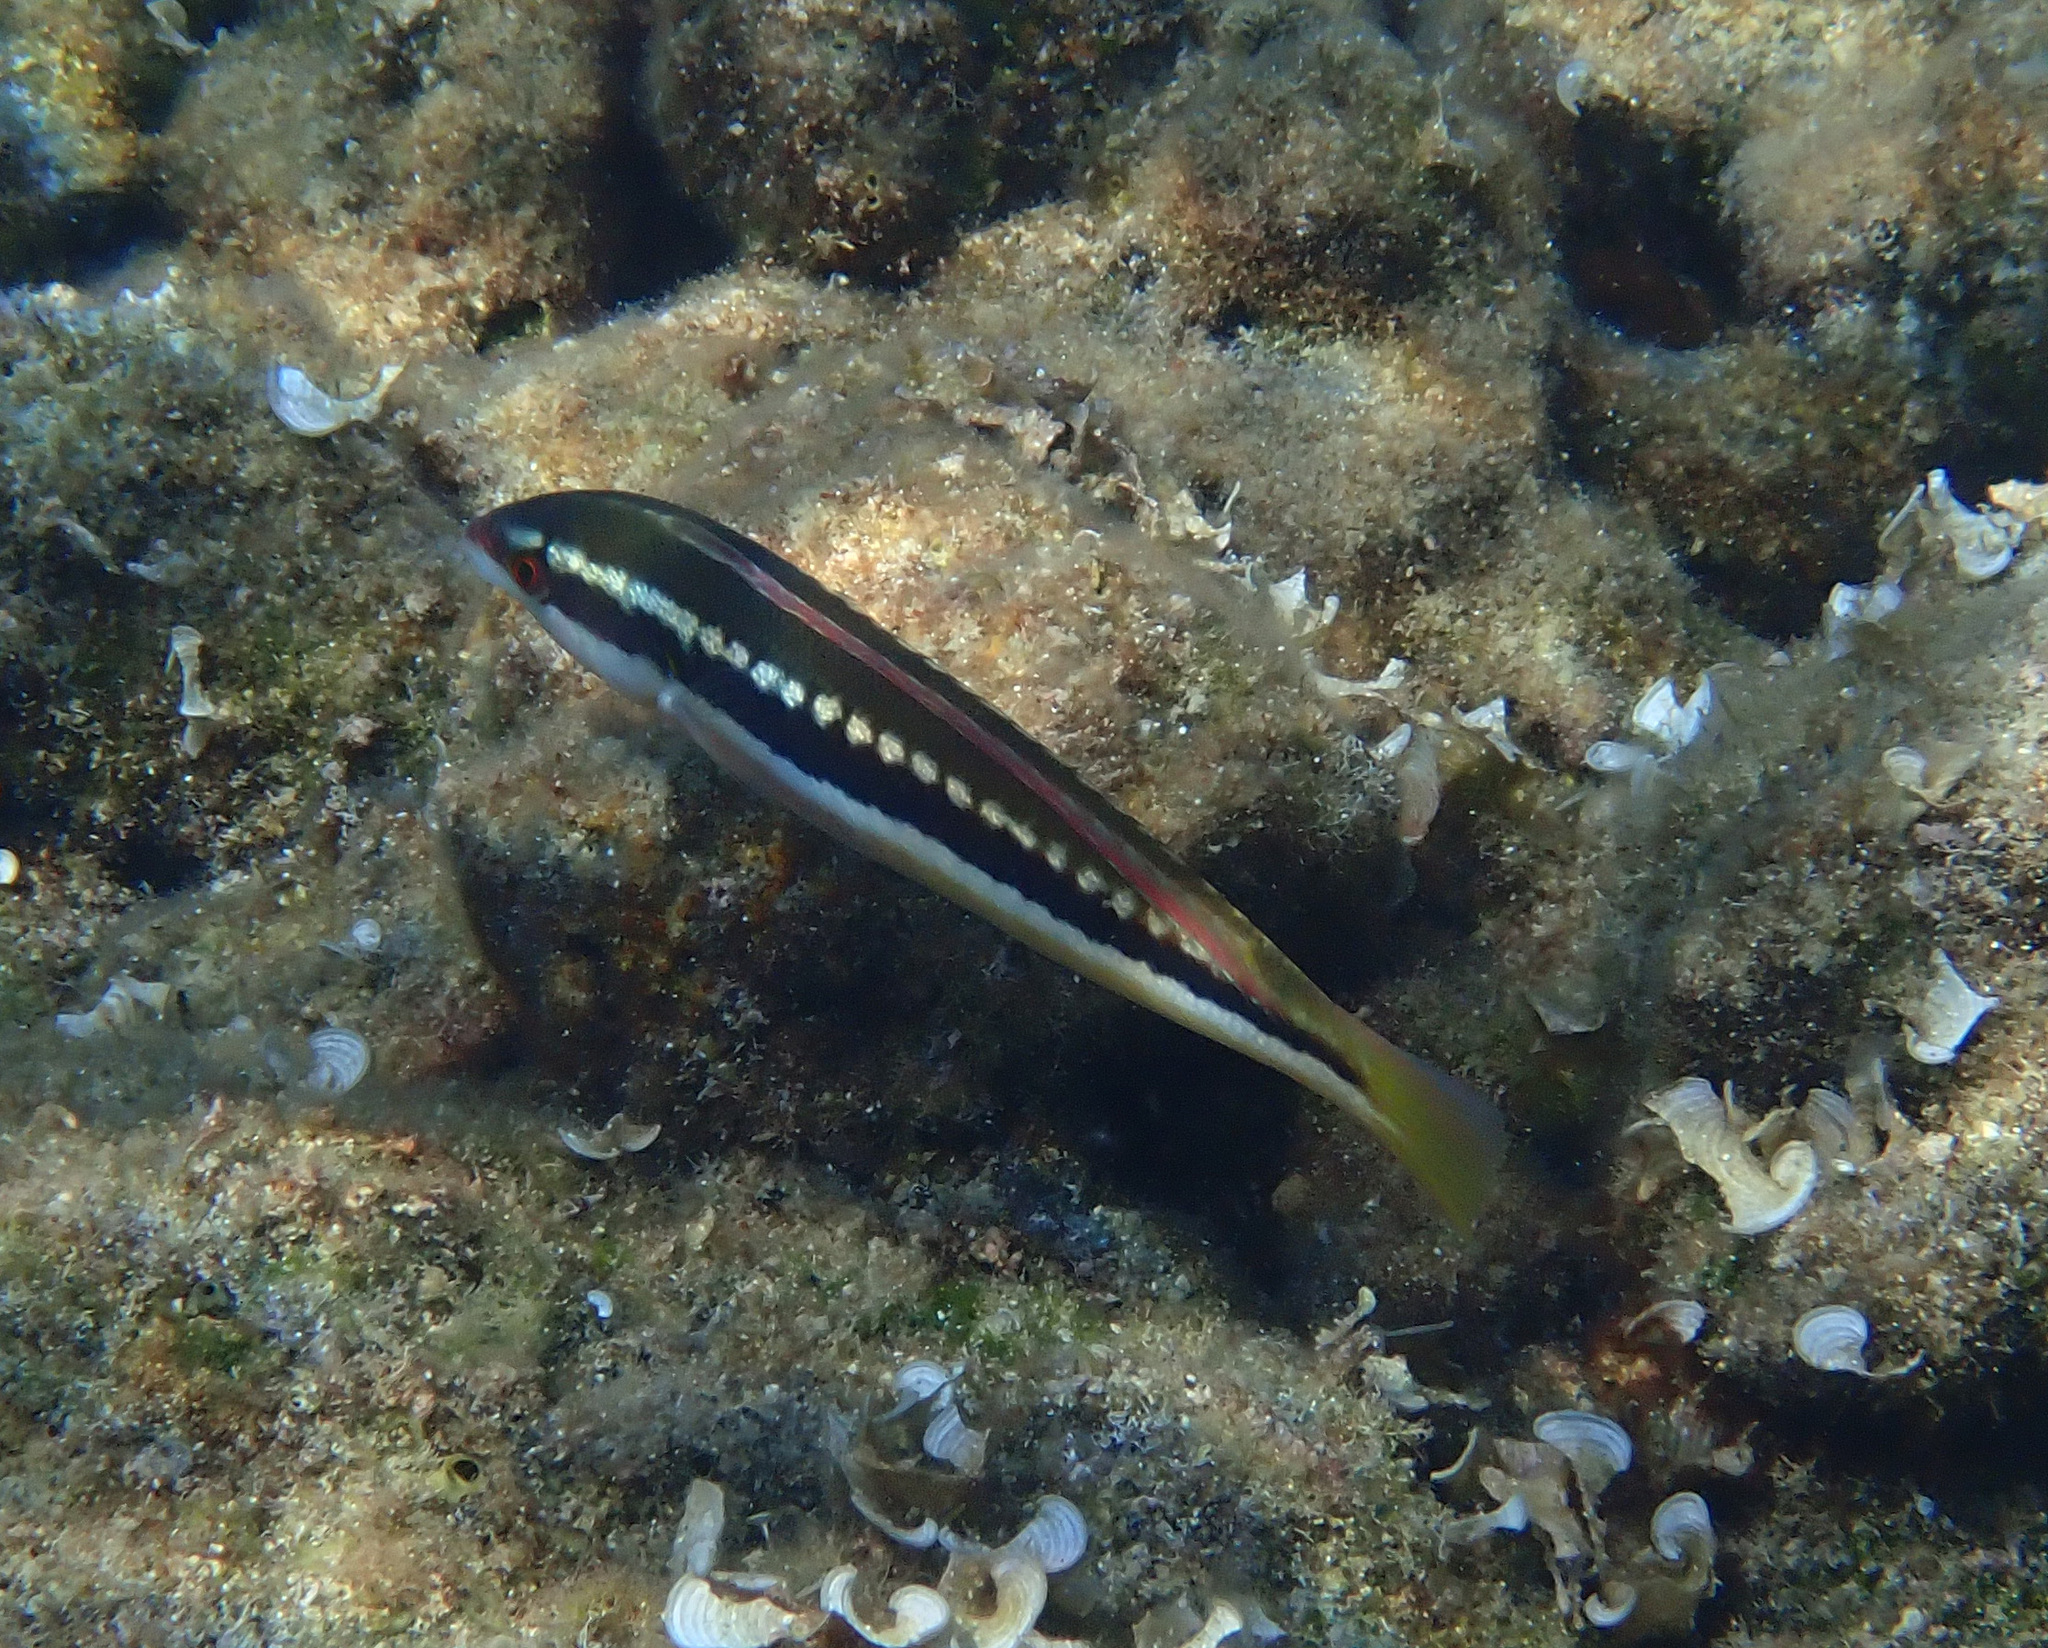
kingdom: Animalia
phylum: Chordata
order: Perciformes
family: Labridae
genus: Coris
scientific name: Coris julis
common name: Rainbow wrasse
